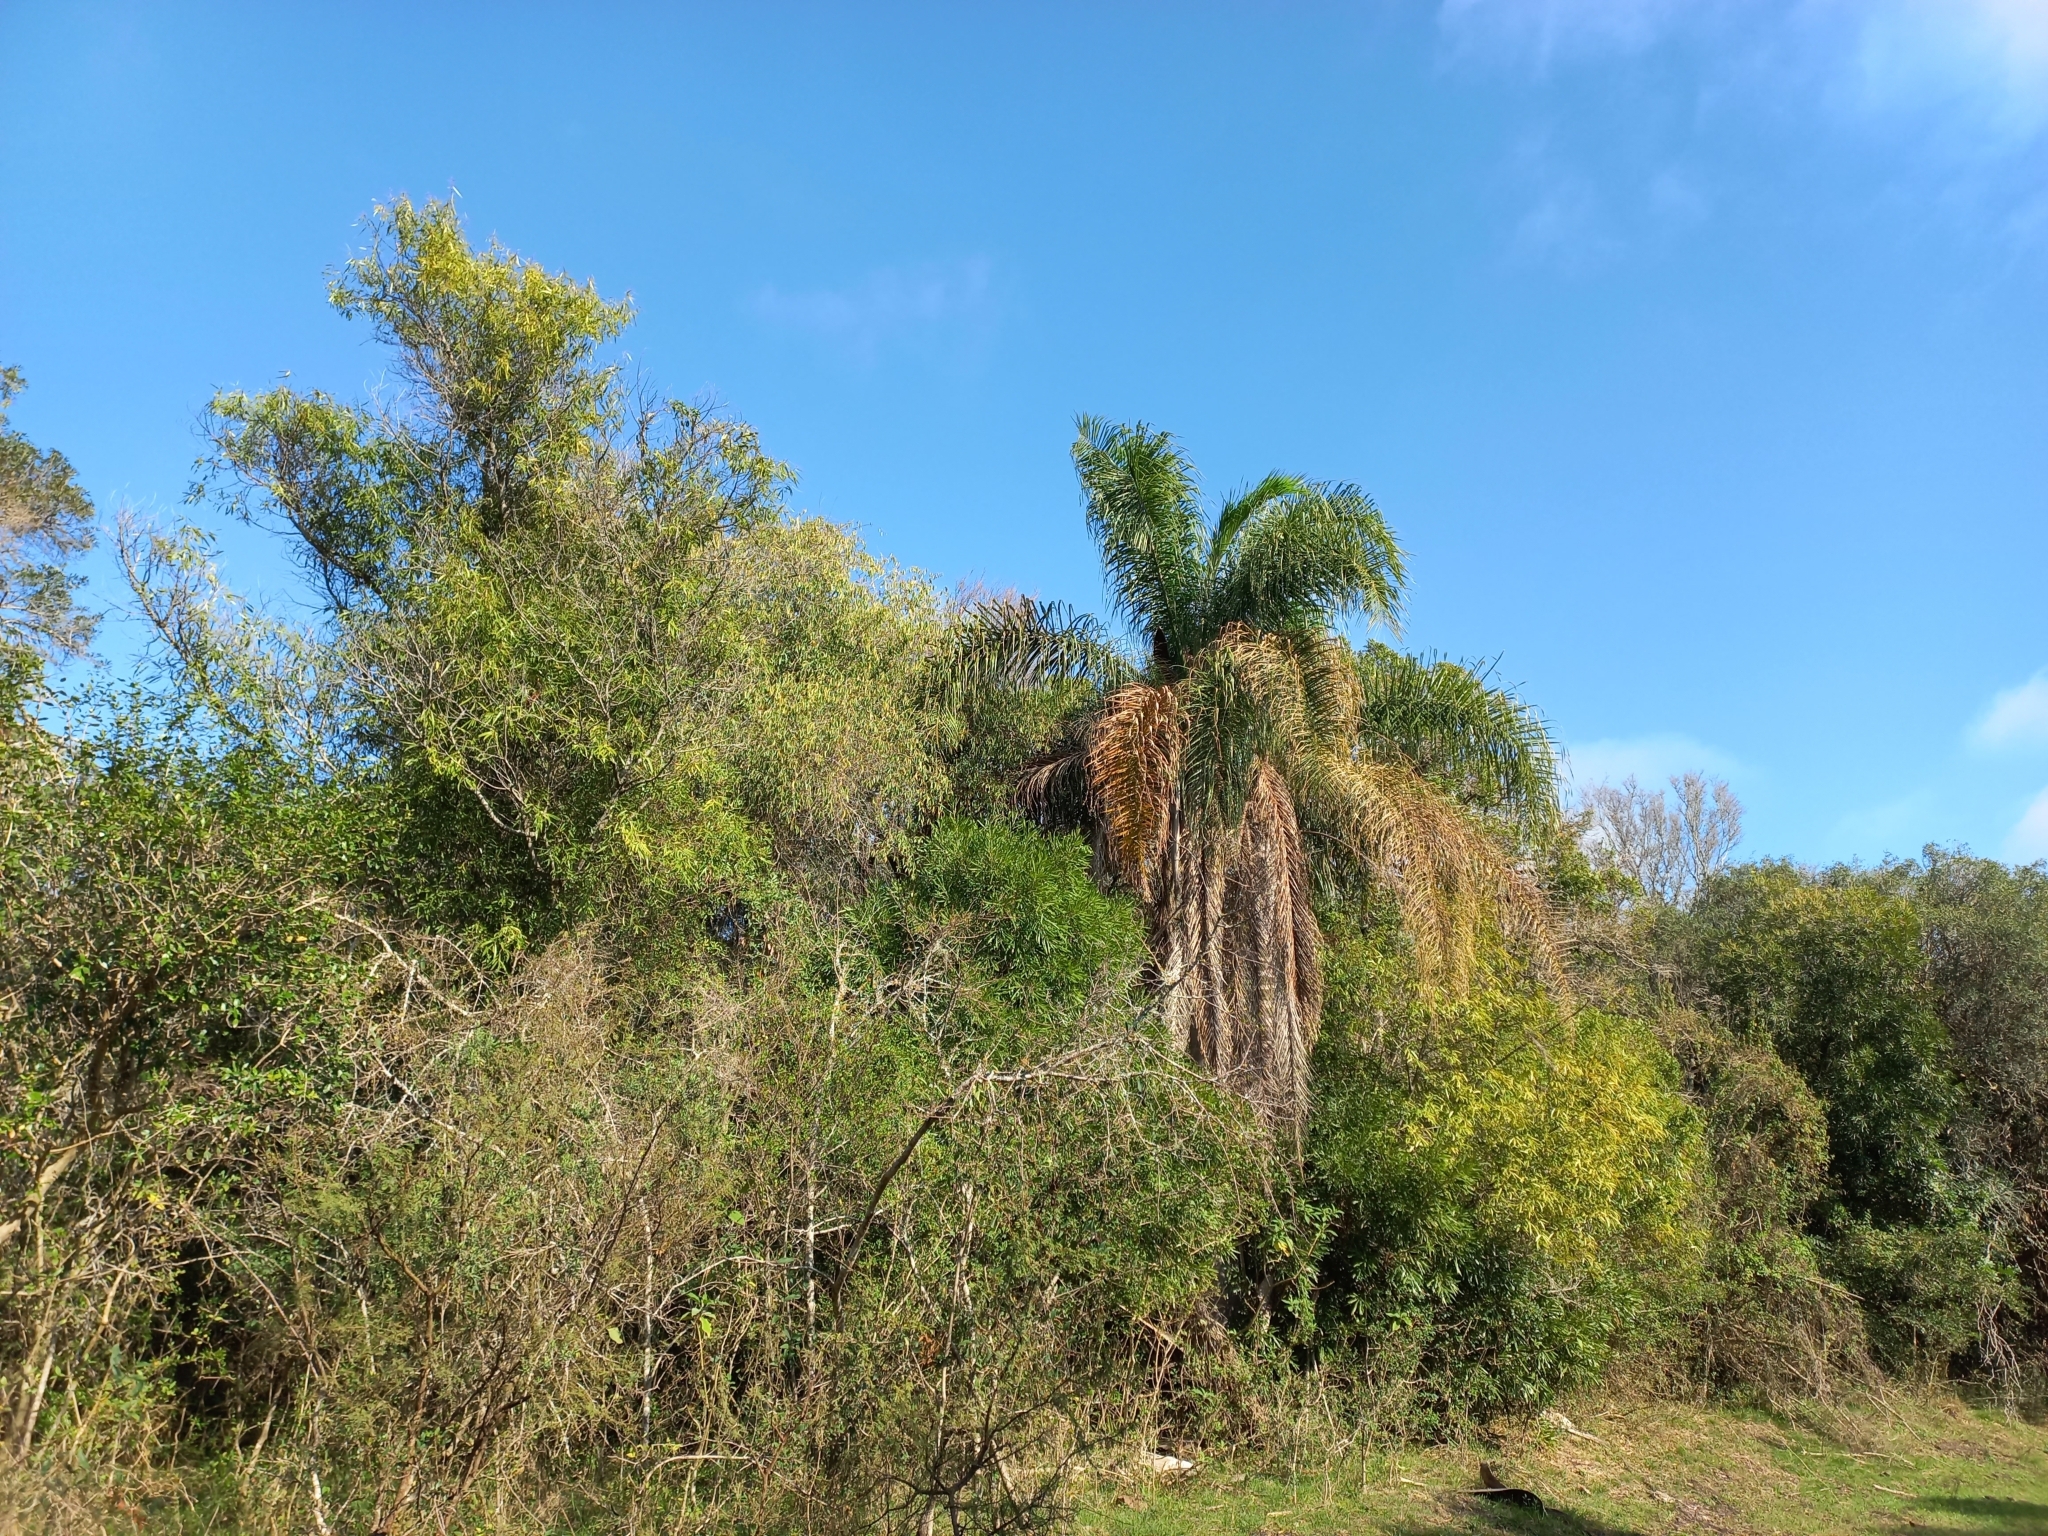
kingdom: Plantae
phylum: Tracheophyta
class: Liliopsida
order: Arecales
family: Arecaceae
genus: Syagrus
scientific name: Syagrus romanzoffiana
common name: Queen palm
